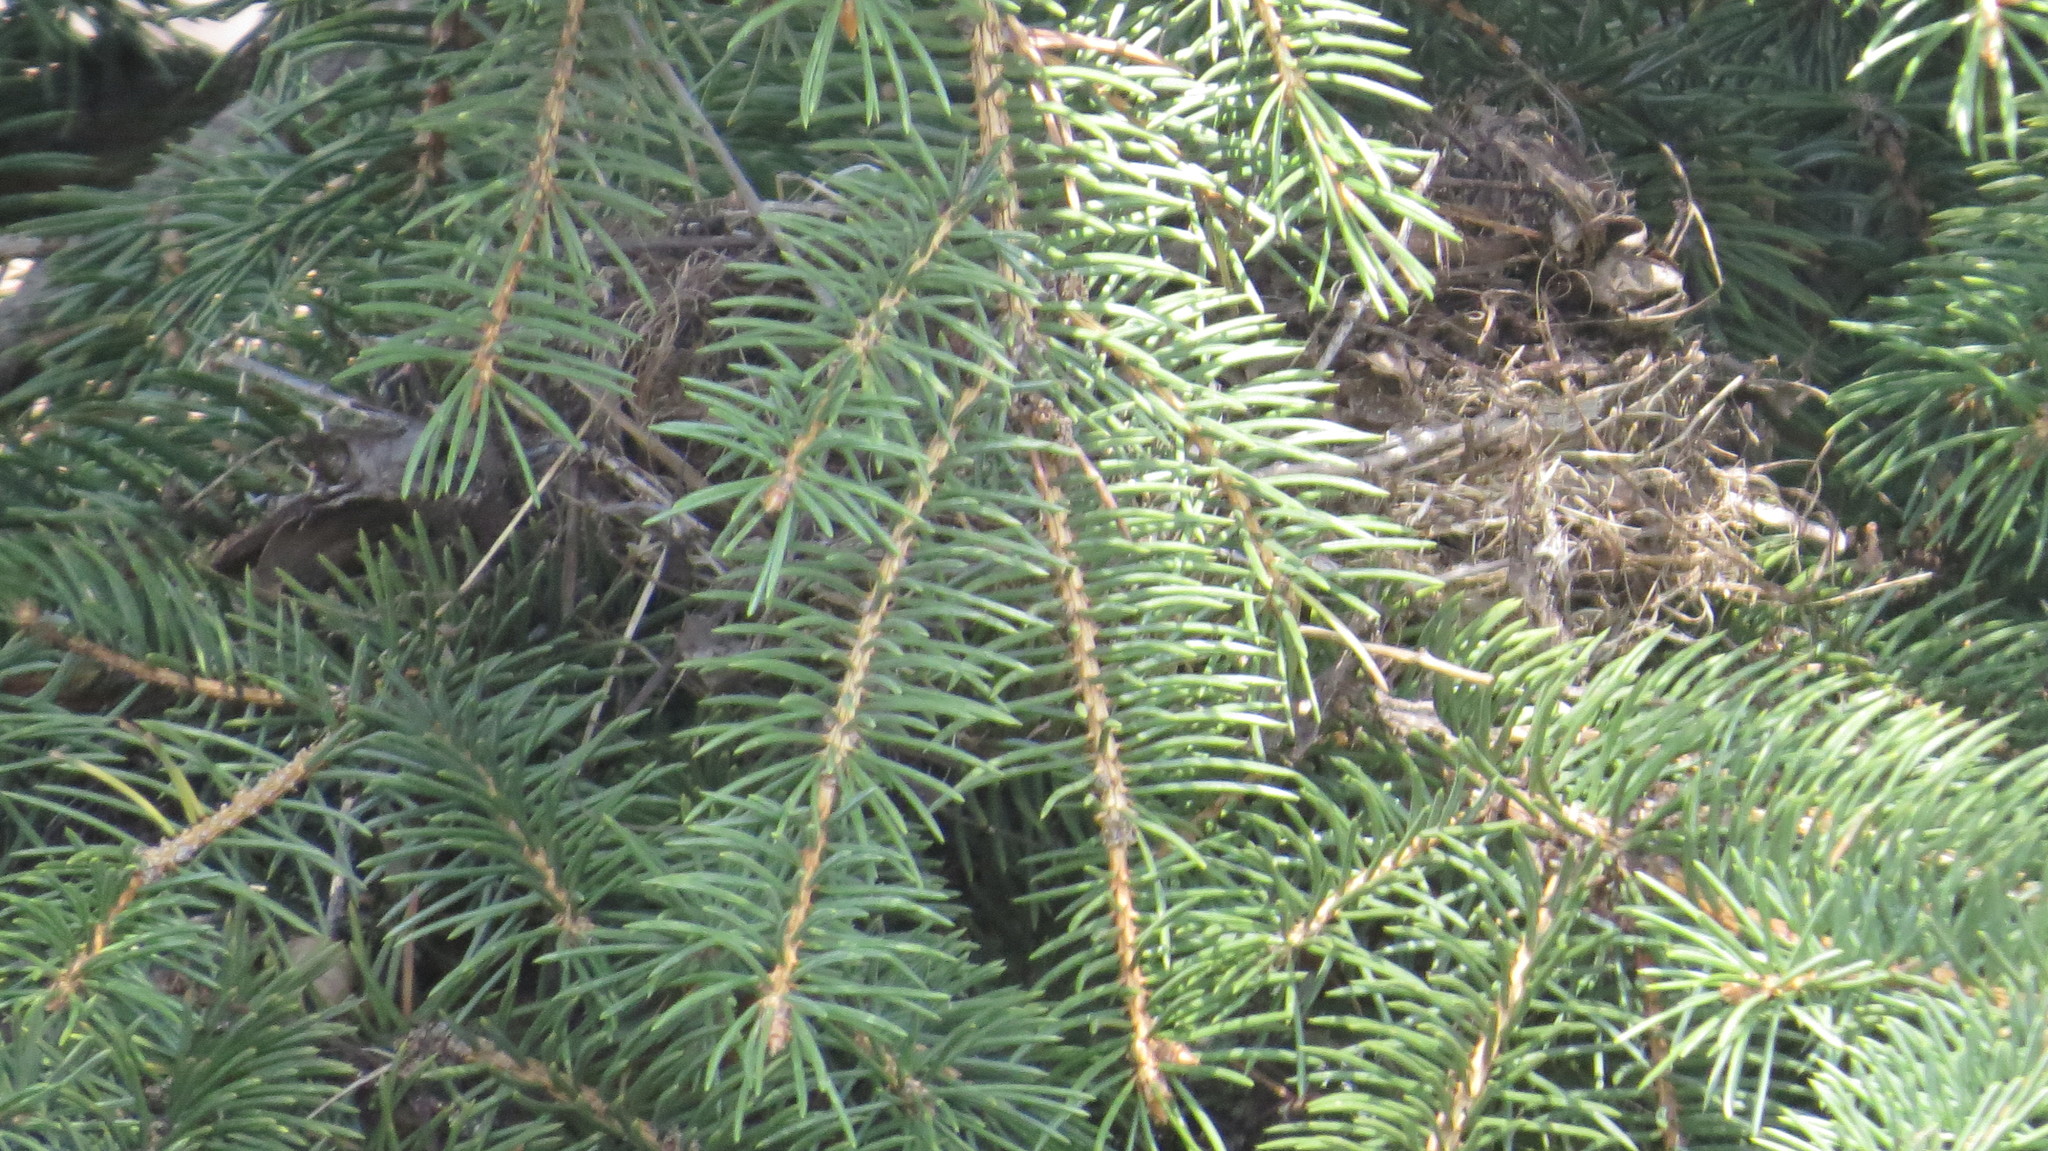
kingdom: Animalia
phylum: Chordata
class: Aves
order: Passeriformes
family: Turdidae
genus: Turdus
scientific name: Turdus migratorius
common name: American robin
